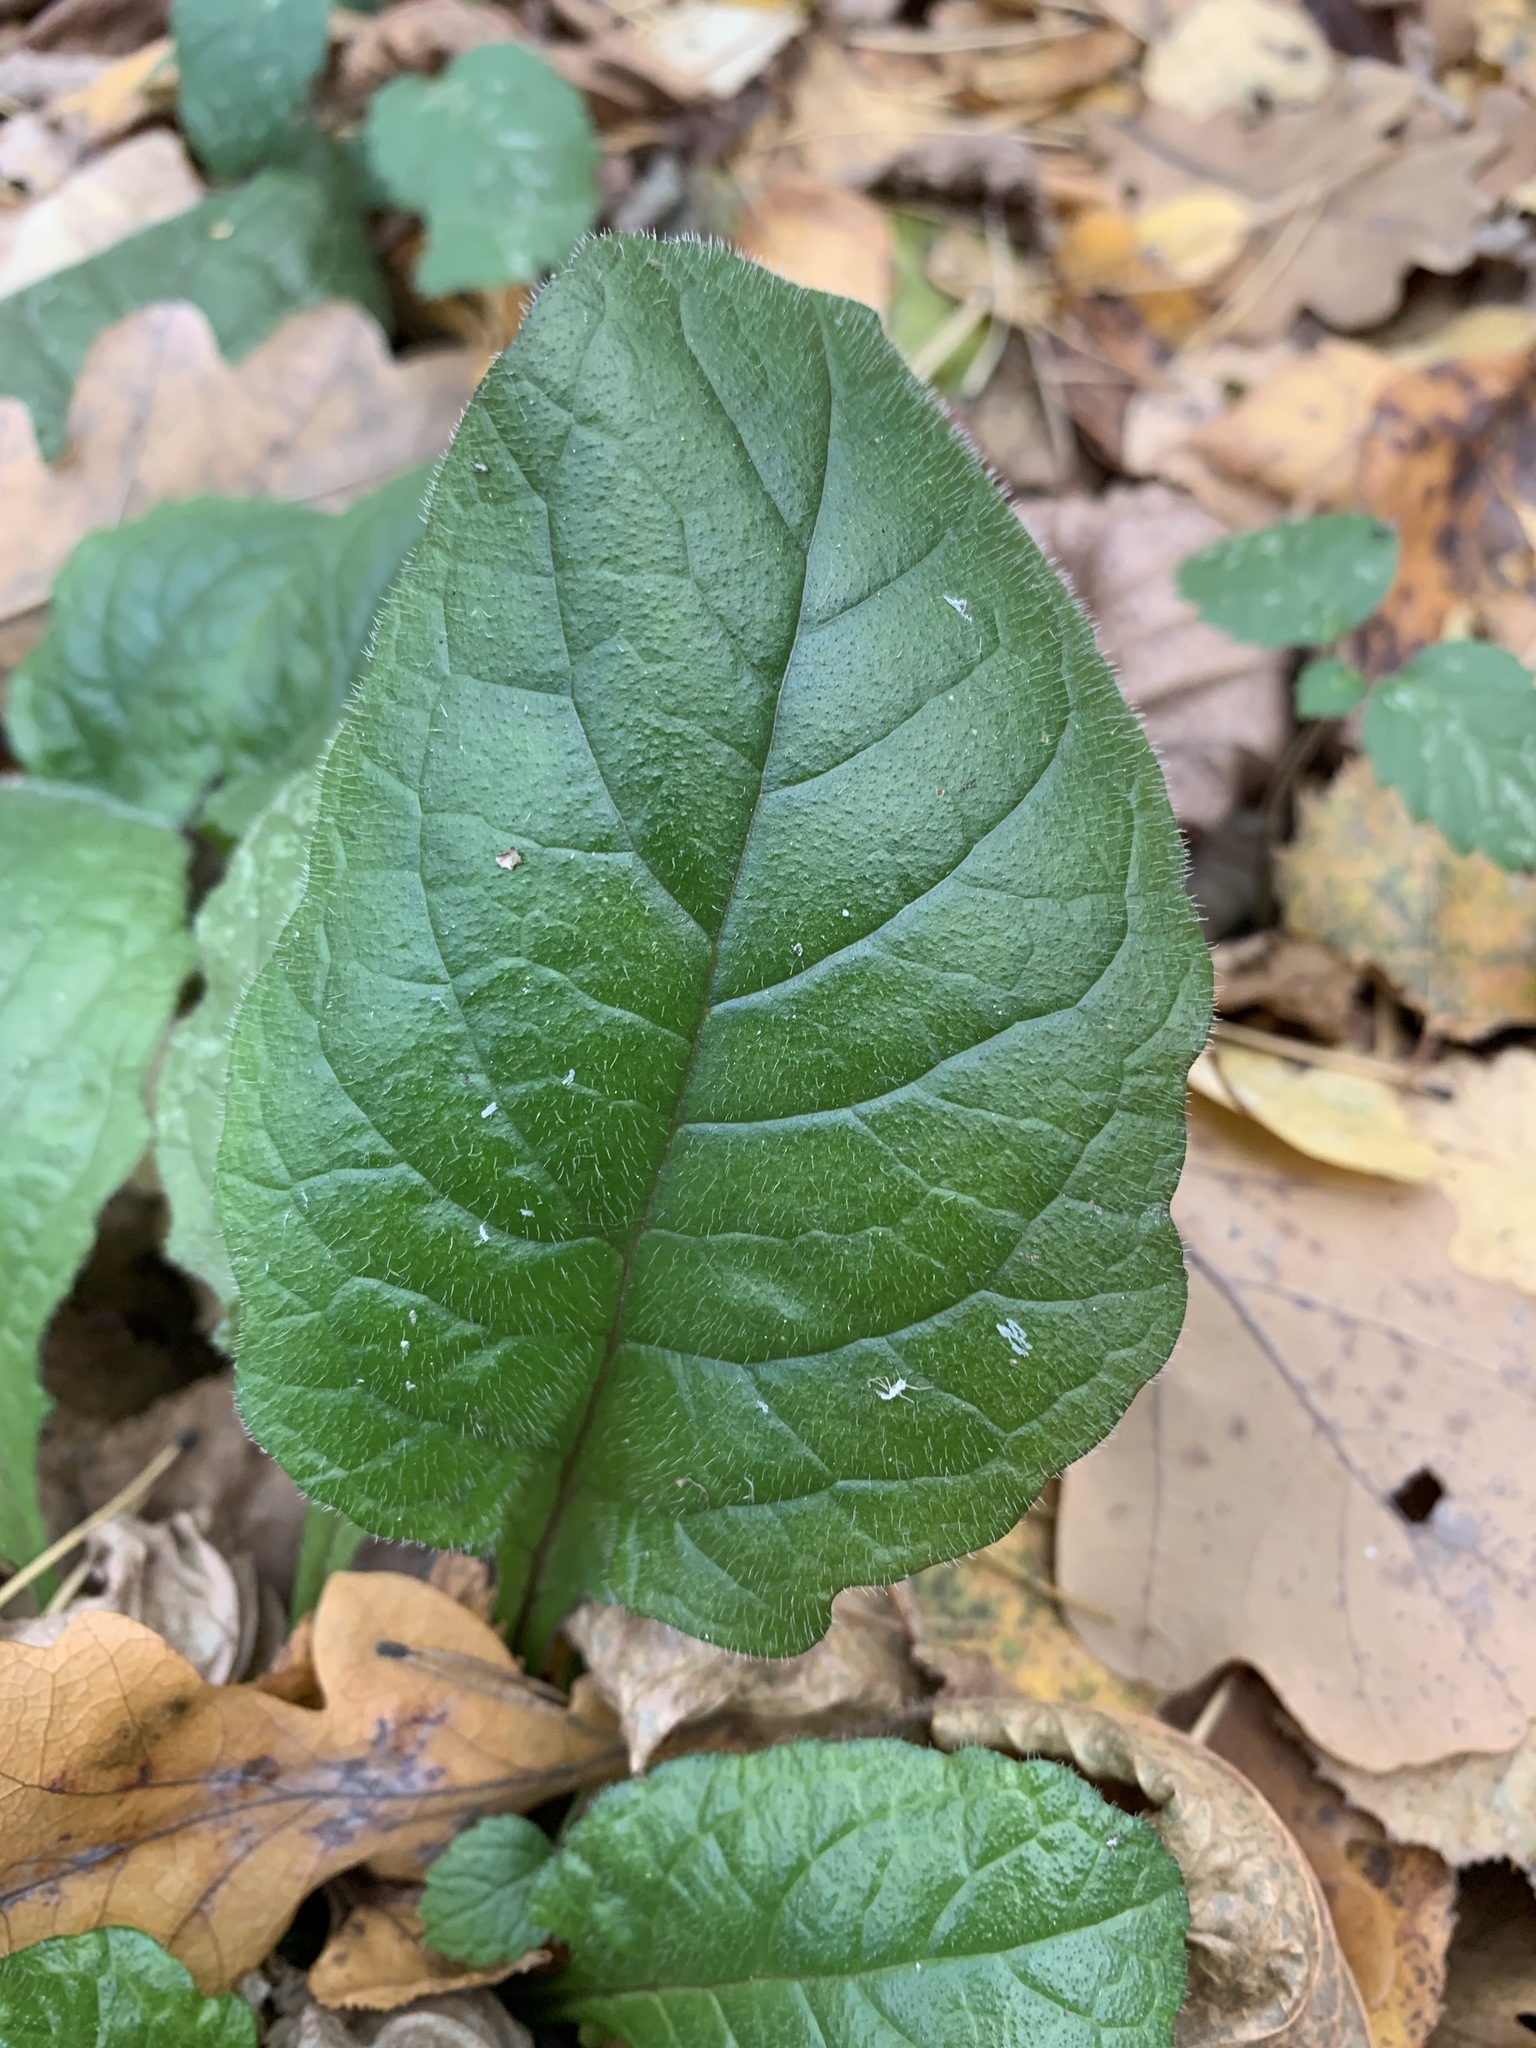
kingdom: Plantae
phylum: Tracheophyta
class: Magnoliopsida
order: Lamiales
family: Lamiaceae
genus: Ajuga
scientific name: Ajuga reptans
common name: Bugle
